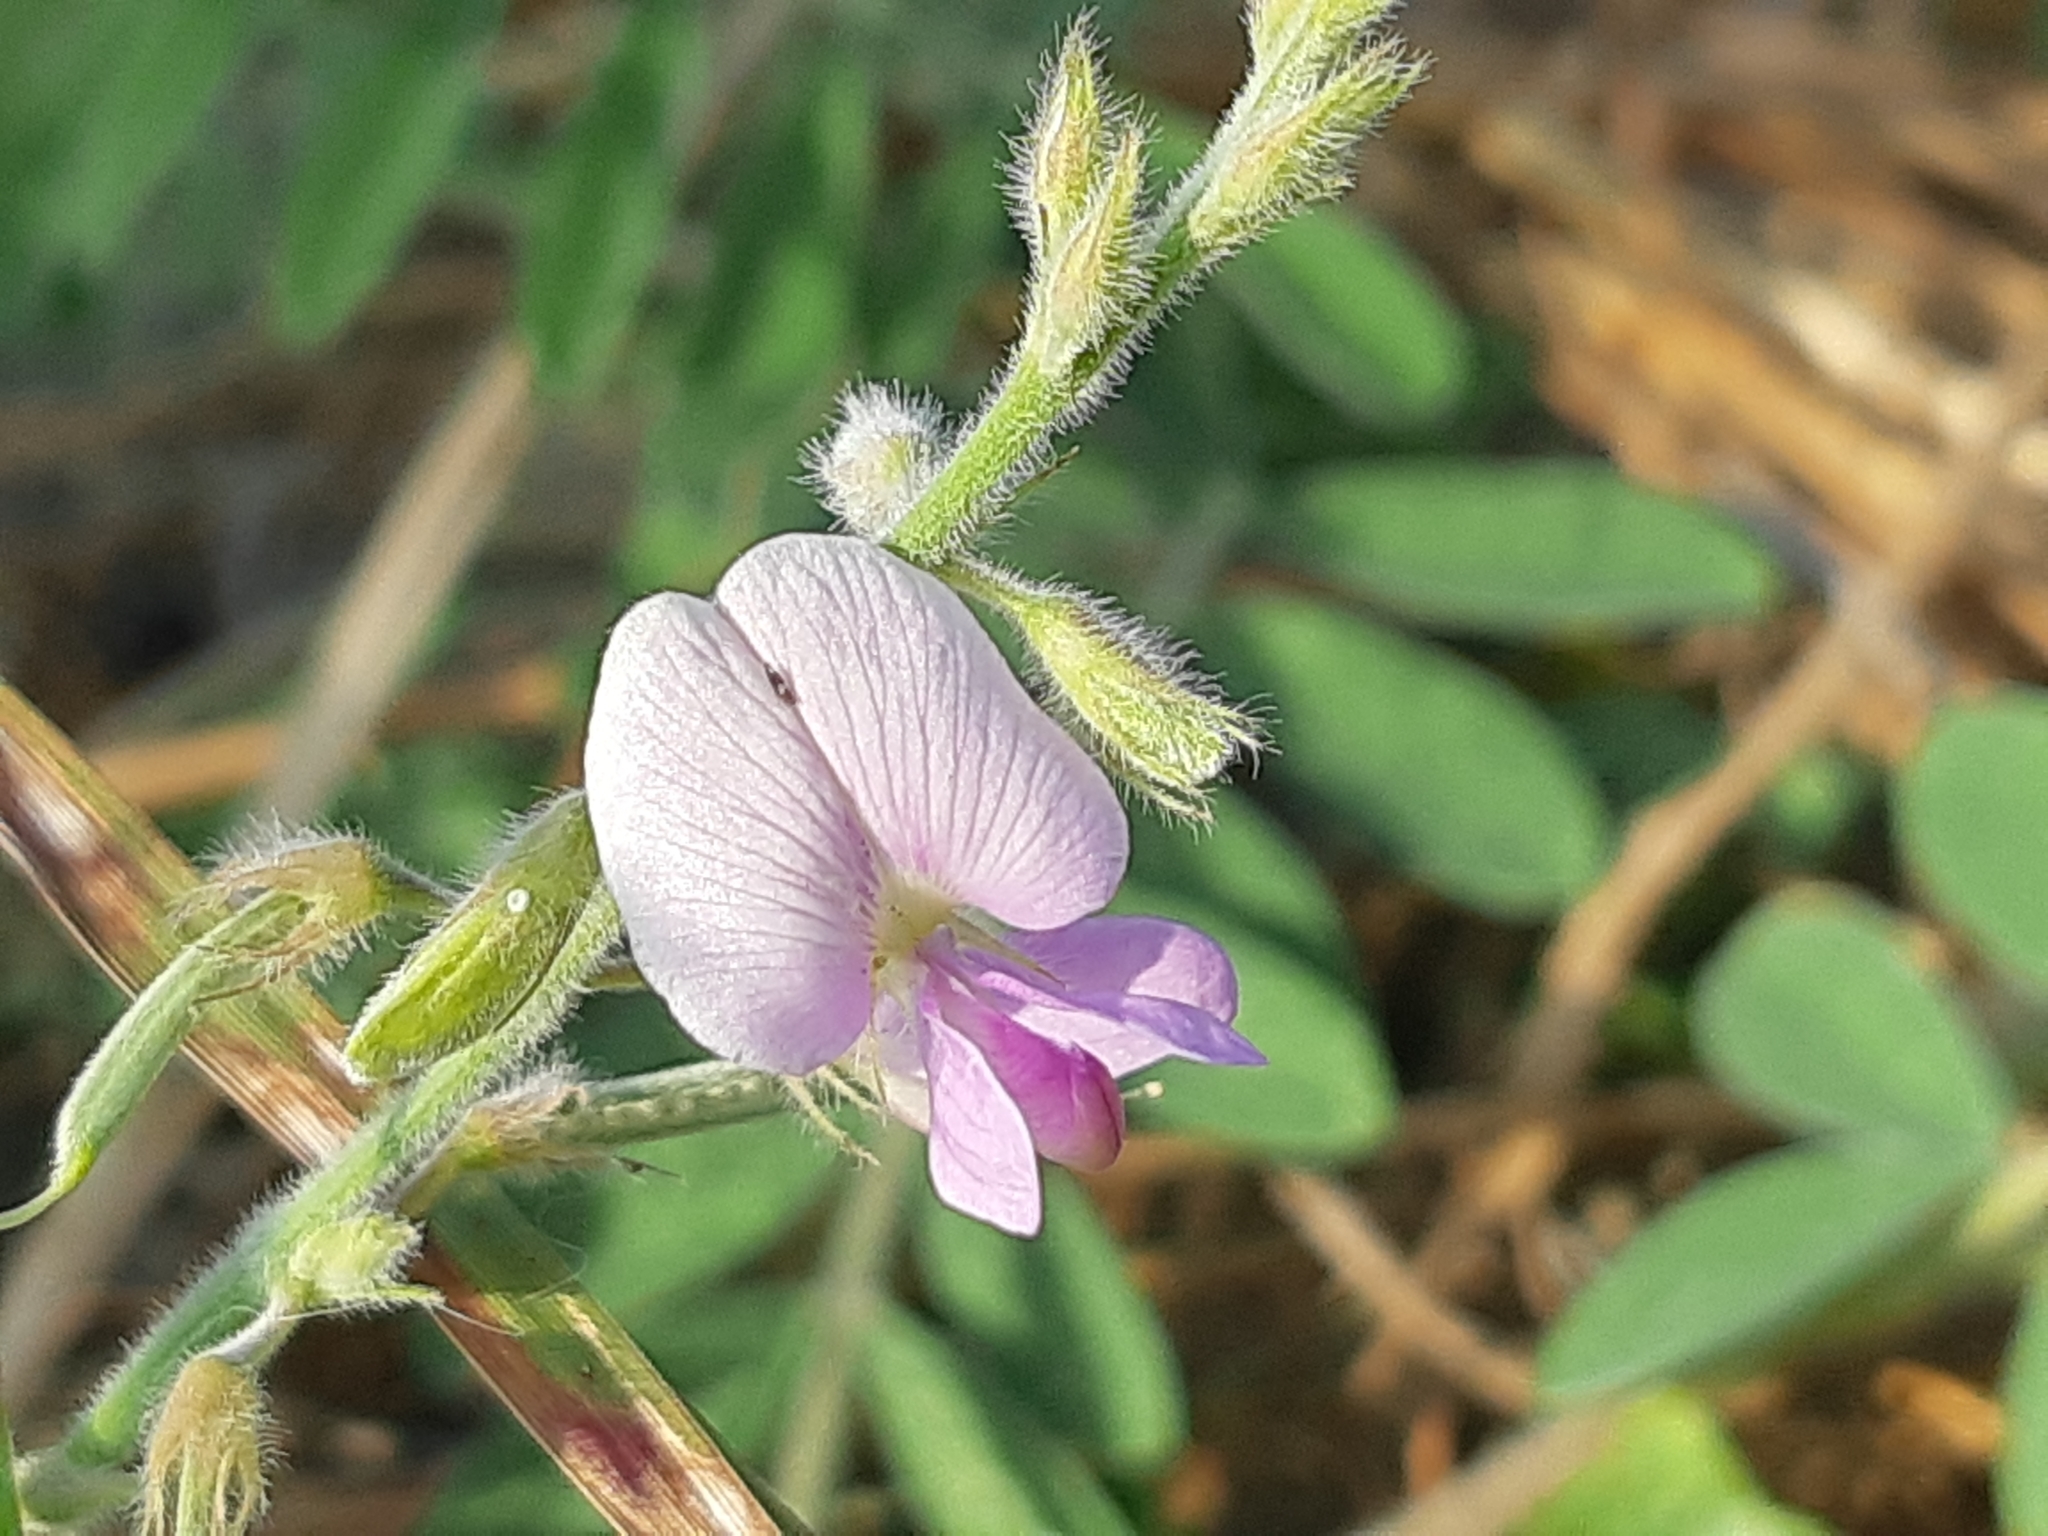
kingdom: Plantae
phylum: Tracheophyta
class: Magnoliopsida
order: Fabales
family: Fabaceae
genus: Coursetia
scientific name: Coursetia tumbezensis
